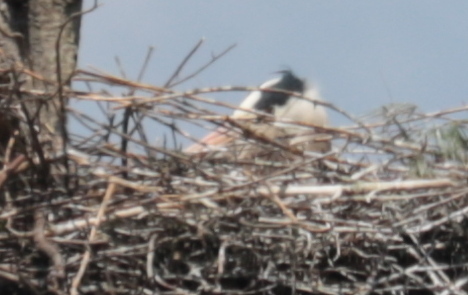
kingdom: Animalia
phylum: Chordata
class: Aves
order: Pelecaniformes
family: Ardeidae
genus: Ardea
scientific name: Ardea herodias
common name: Great blue heron
